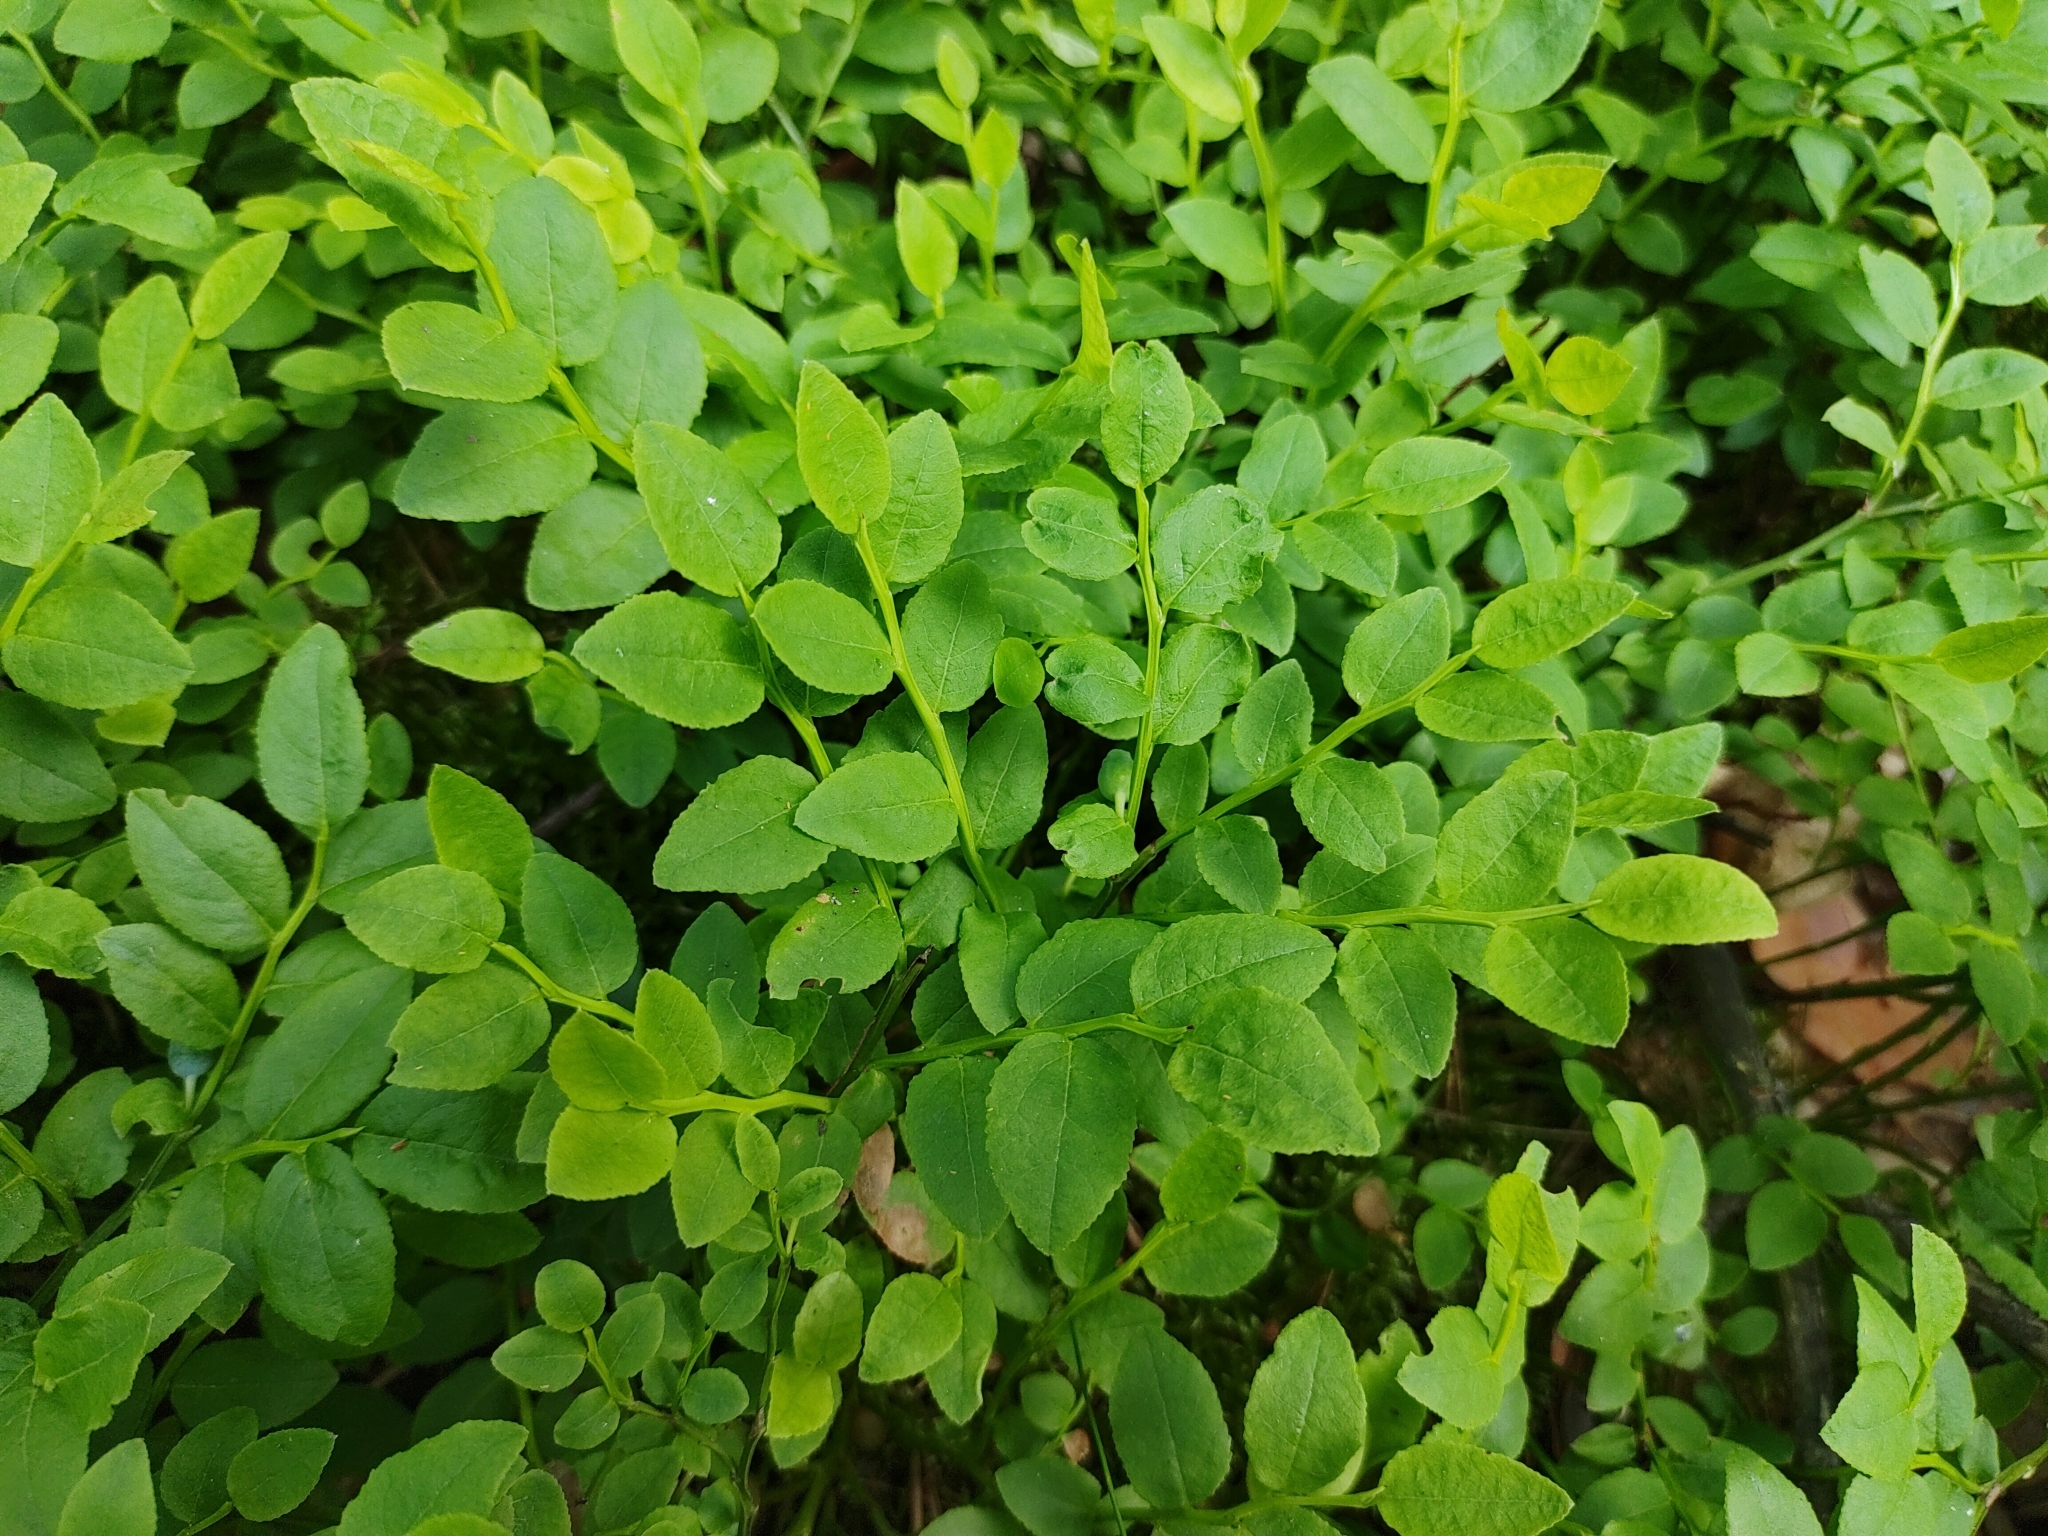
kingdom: Plantae
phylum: Tracheophyta
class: Magnoliopsida
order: Ericales
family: Ericaceae
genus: Vaccinium
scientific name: Vaccinium myrtillus
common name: Bilberry
